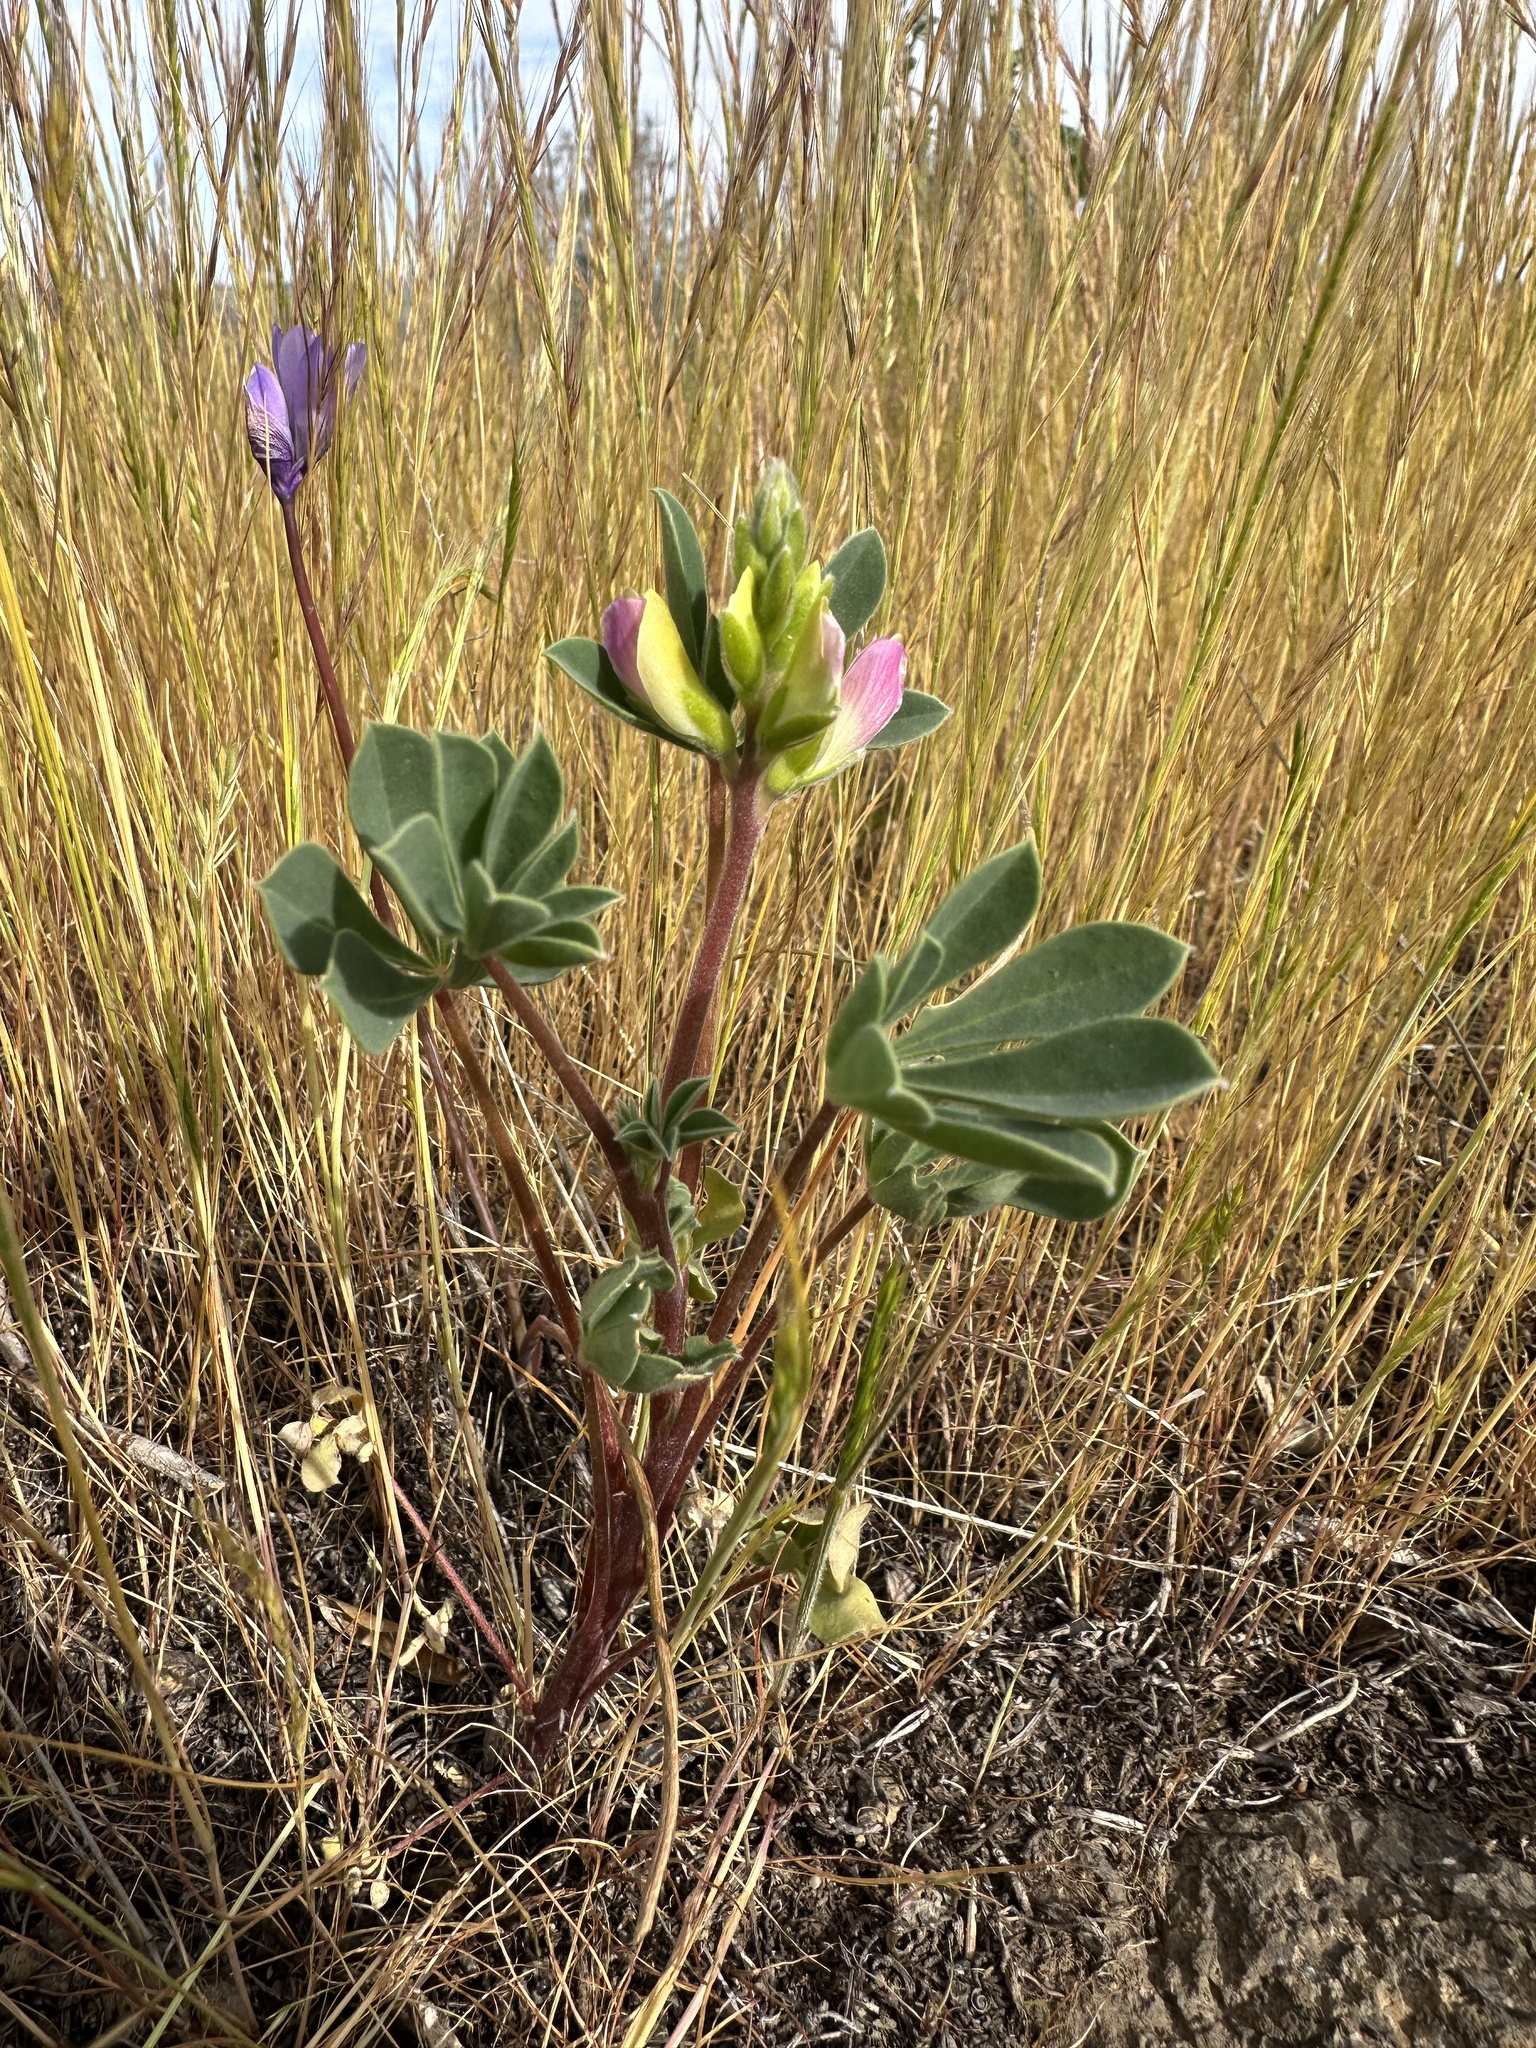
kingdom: Plantae
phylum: Tracheophyta
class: Magnoliopsida
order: Fabales
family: Fabaceae
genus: Lupinus
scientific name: Lupinus stiversii
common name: Harlequin lupine
